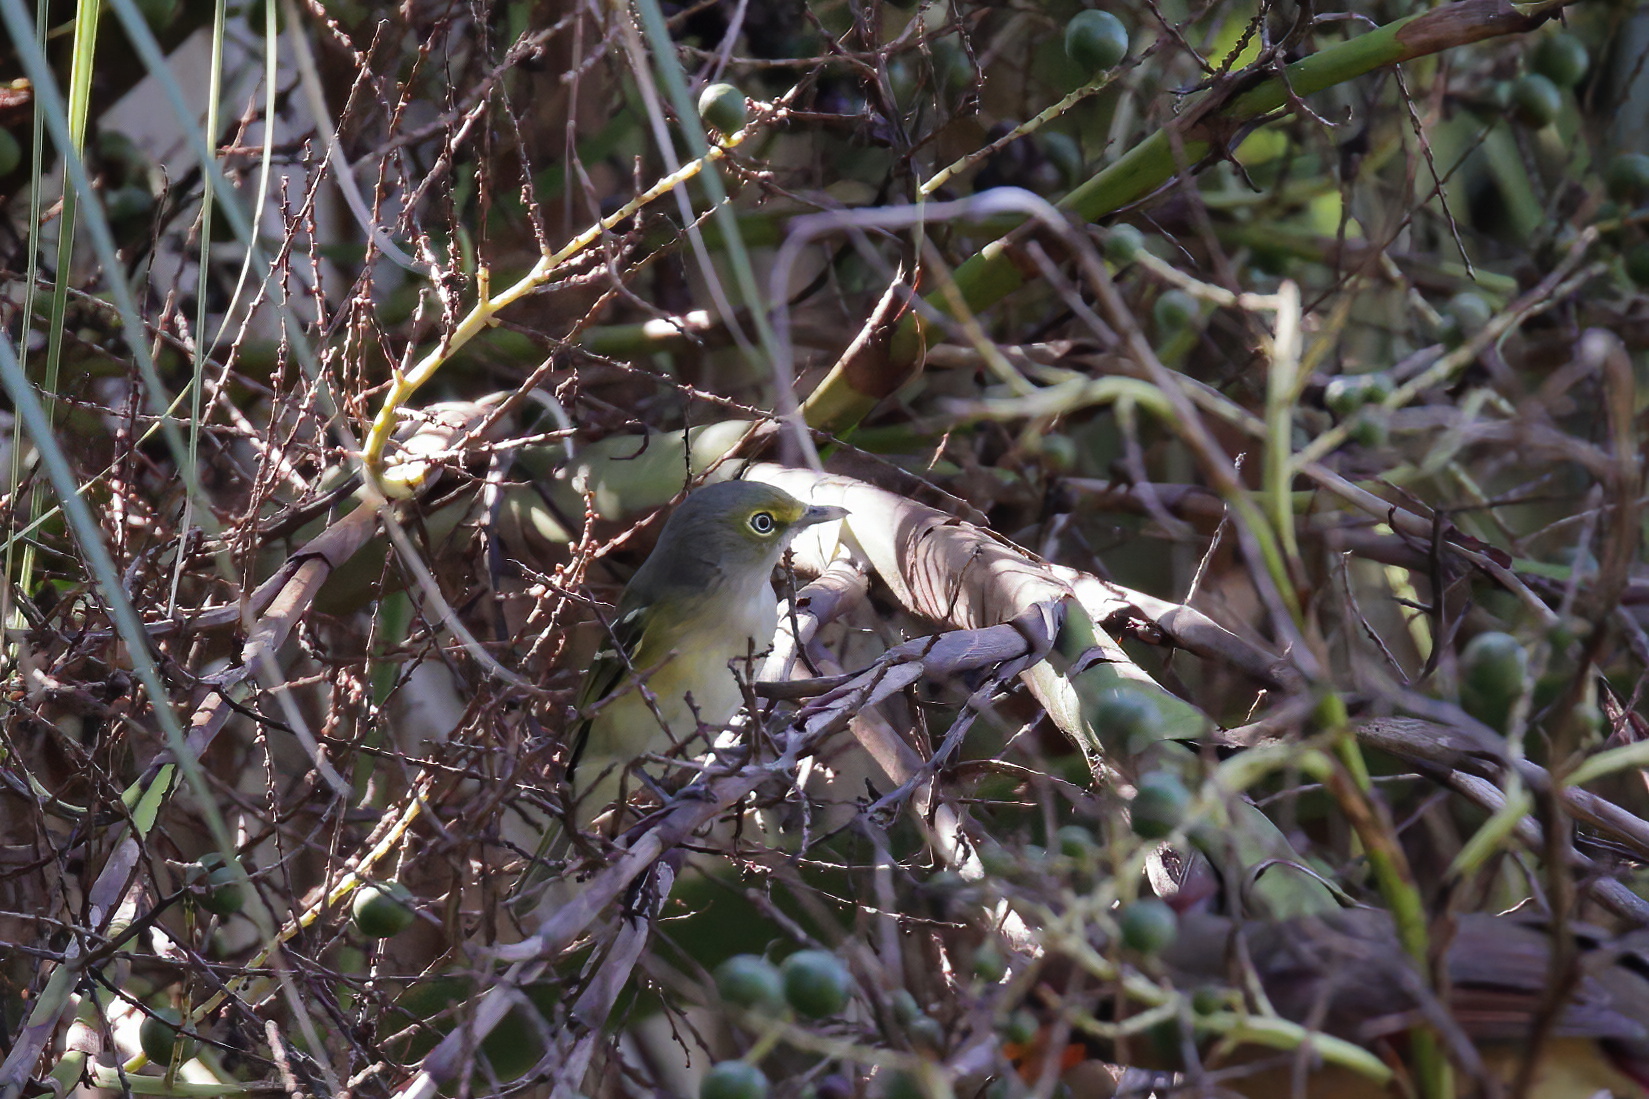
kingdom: Animalia
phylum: Chordata
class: Aves
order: Passeriformes
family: Vireonidae
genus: Vireo
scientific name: Vireo griseus
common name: White-eyed vireo
